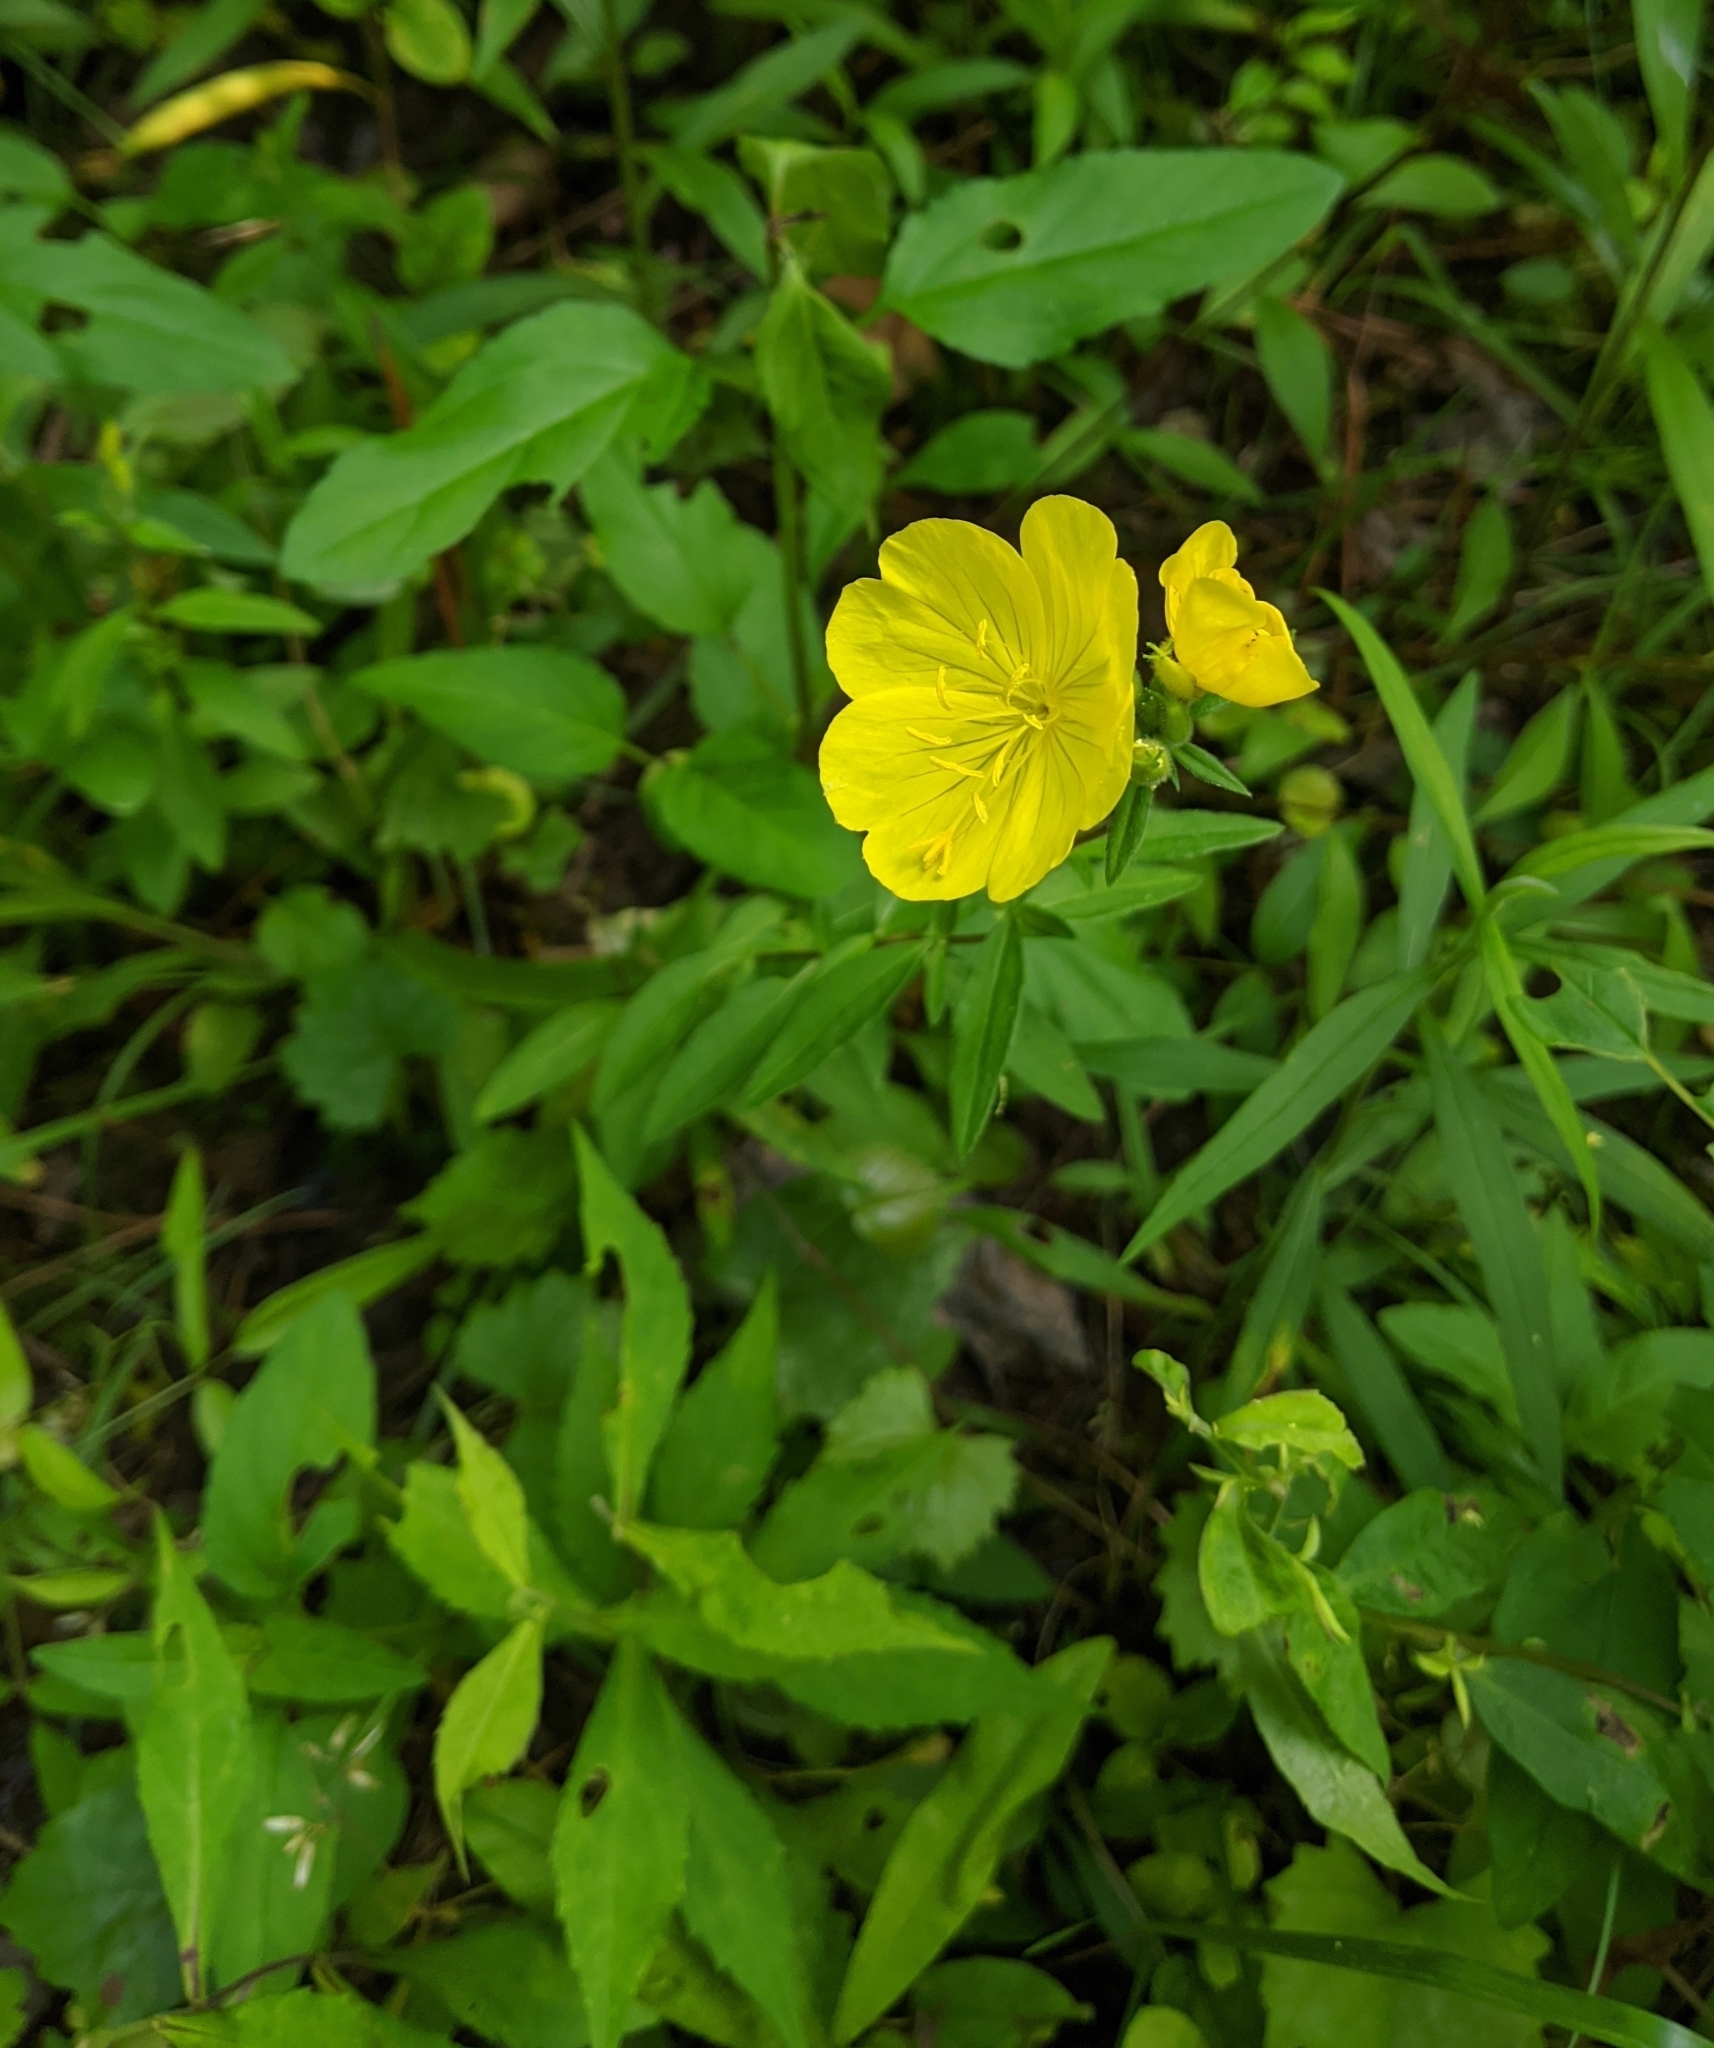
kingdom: Plantae
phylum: Tracheophyta
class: Magnoliopsida
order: Myrtales
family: Onagraceae
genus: Oenothera
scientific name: Oenothera fruticosa
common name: Southern sundrops
